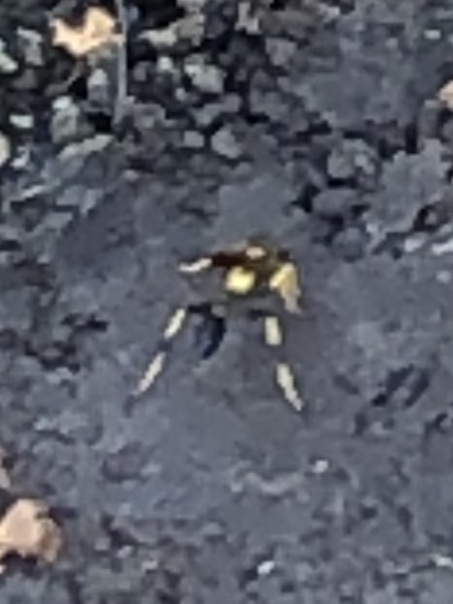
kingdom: Animalia
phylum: Arthropoda
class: Insecta
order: Hymenoptera
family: Sphecidae
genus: Sceliphron
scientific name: Sceliphron caementarium
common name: Mud dauber
